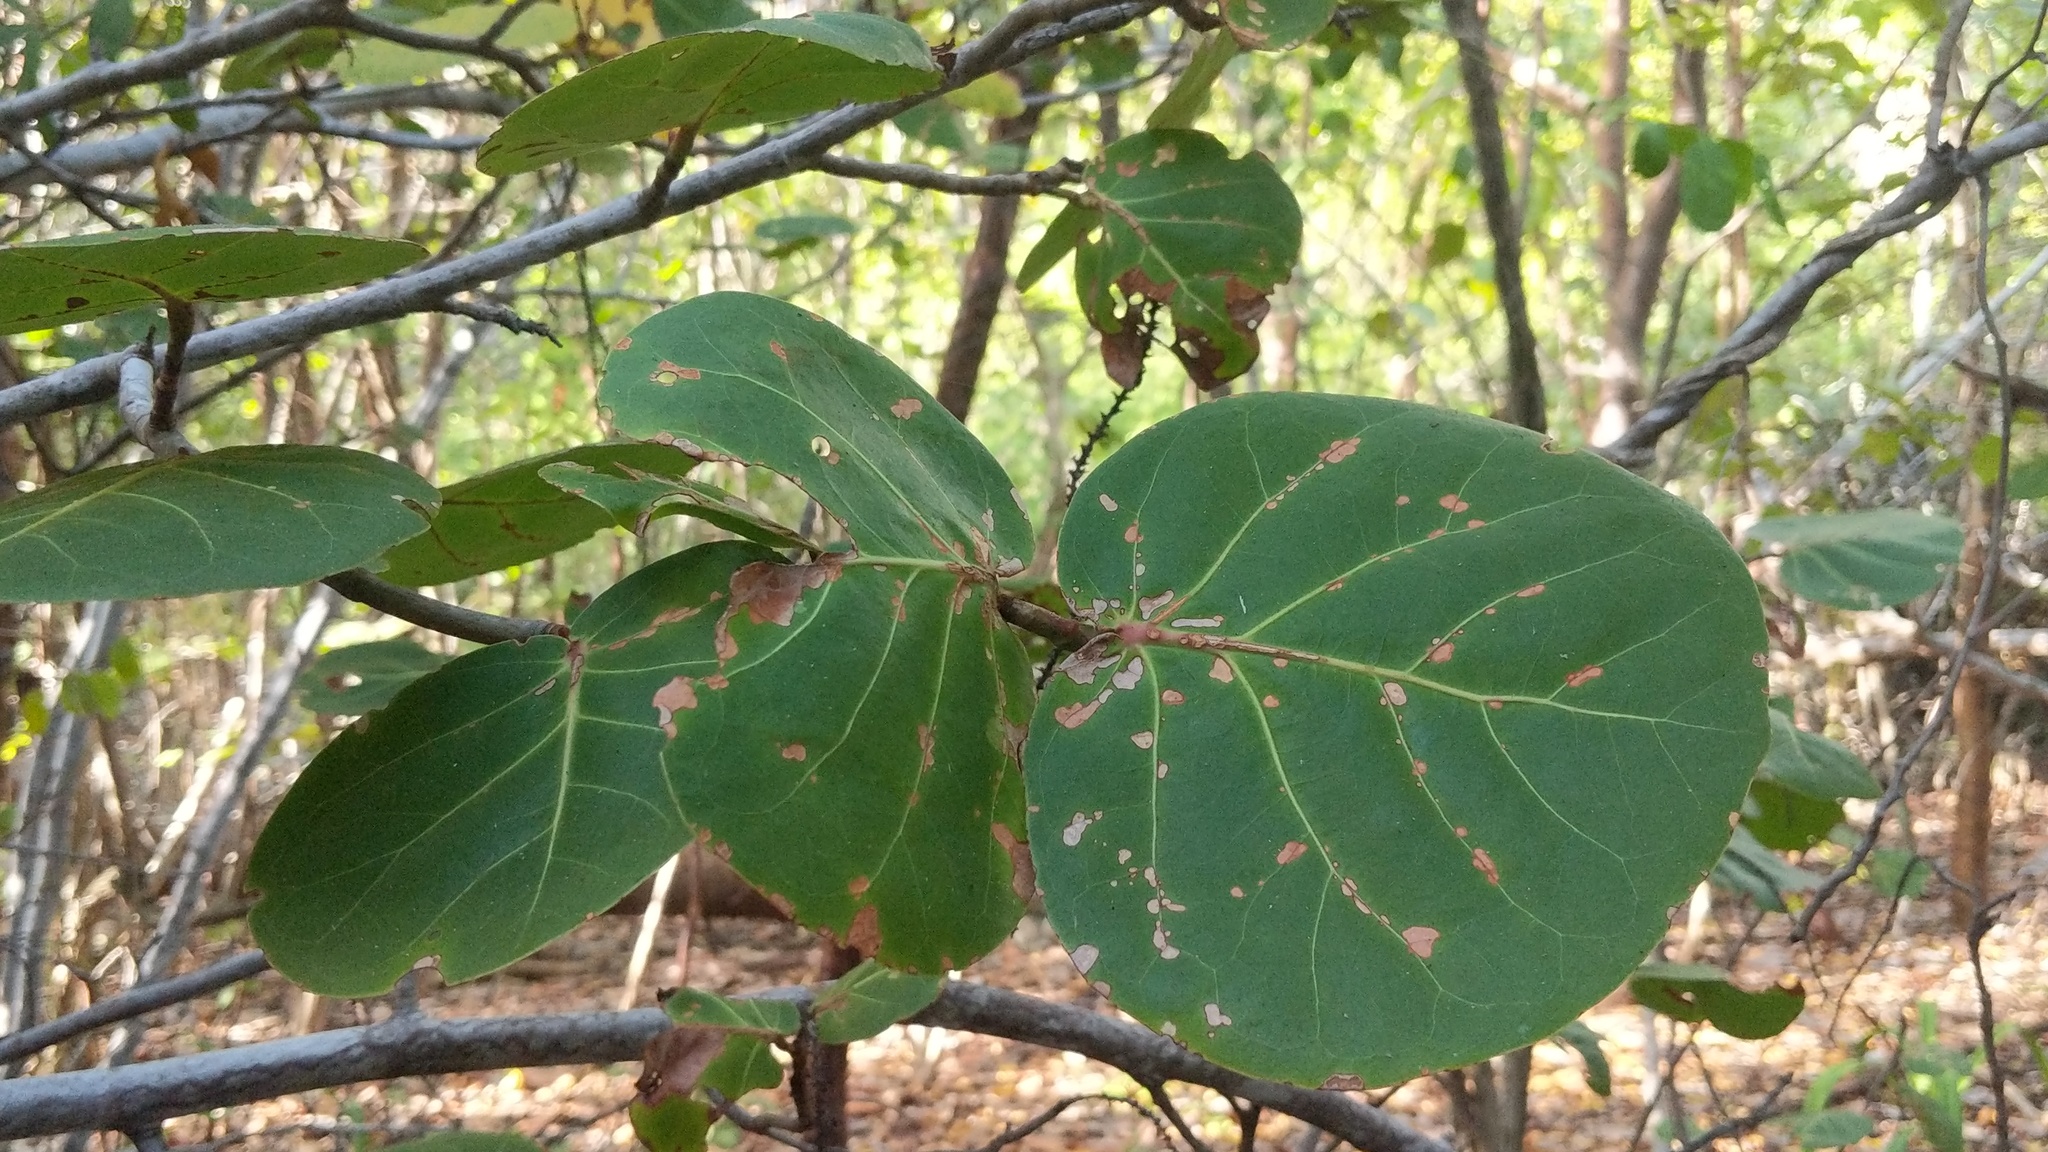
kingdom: Plantae
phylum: Tracheophyta
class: Magnoliopsida
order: Caryophyllales
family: Polygonaceae
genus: Coccoloba
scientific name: Coccoloba uvifera
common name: Seagrape
